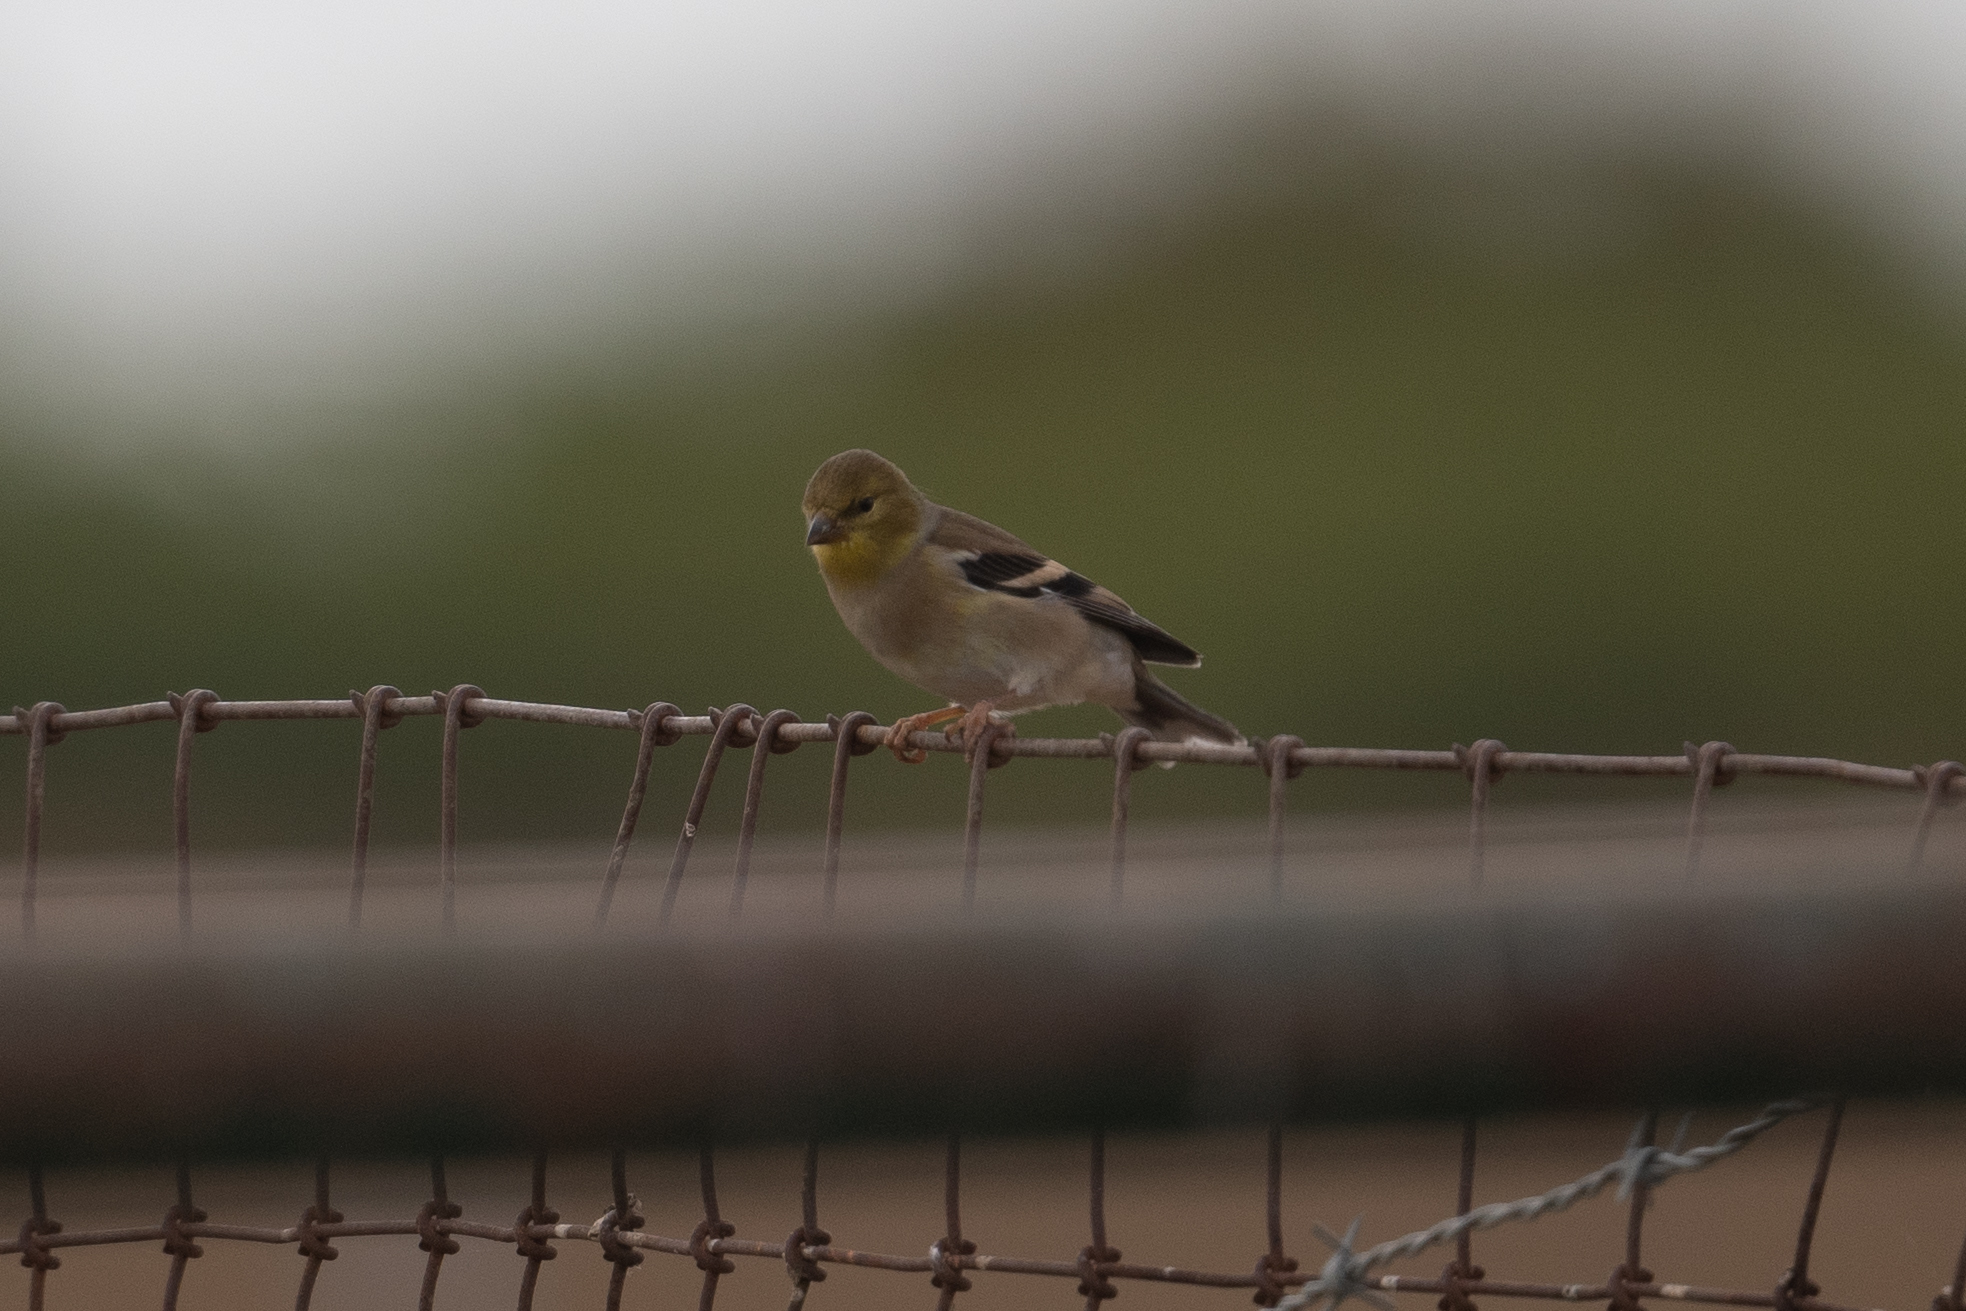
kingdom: Animalia
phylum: Chordata
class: Aves
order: Passeriformes
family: Fringillidae
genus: Spinus
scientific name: Spinus tristis
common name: American goldfinch
